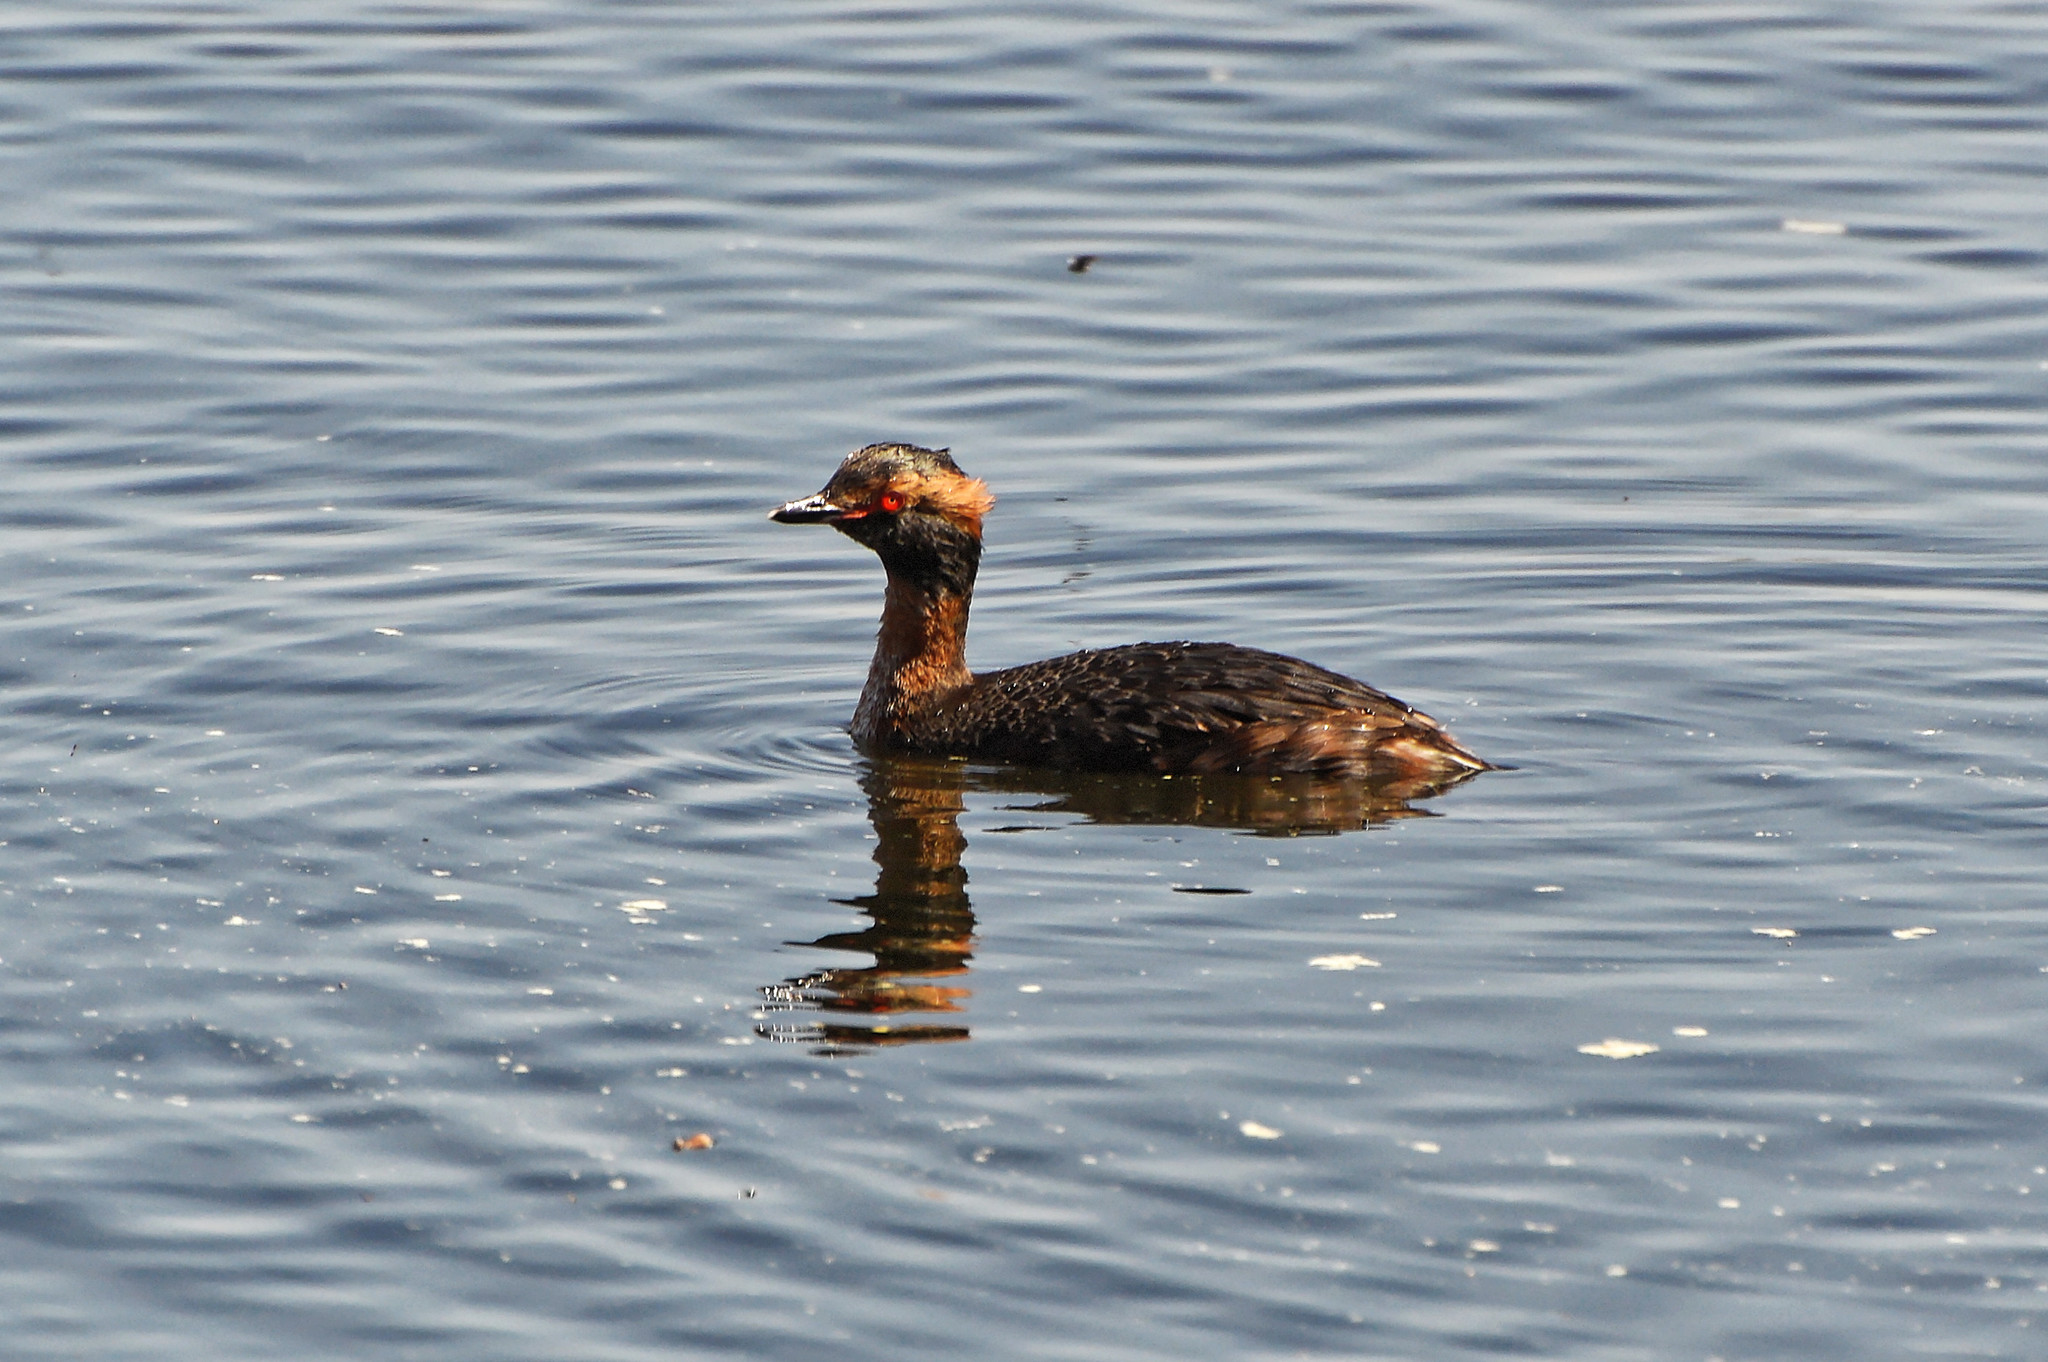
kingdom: Animalia
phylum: Chordata
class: Aves
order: Podicipediformes
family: Podicipedidae
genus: Podiceps
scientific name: Podiceps auritus
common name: Horned grebe
